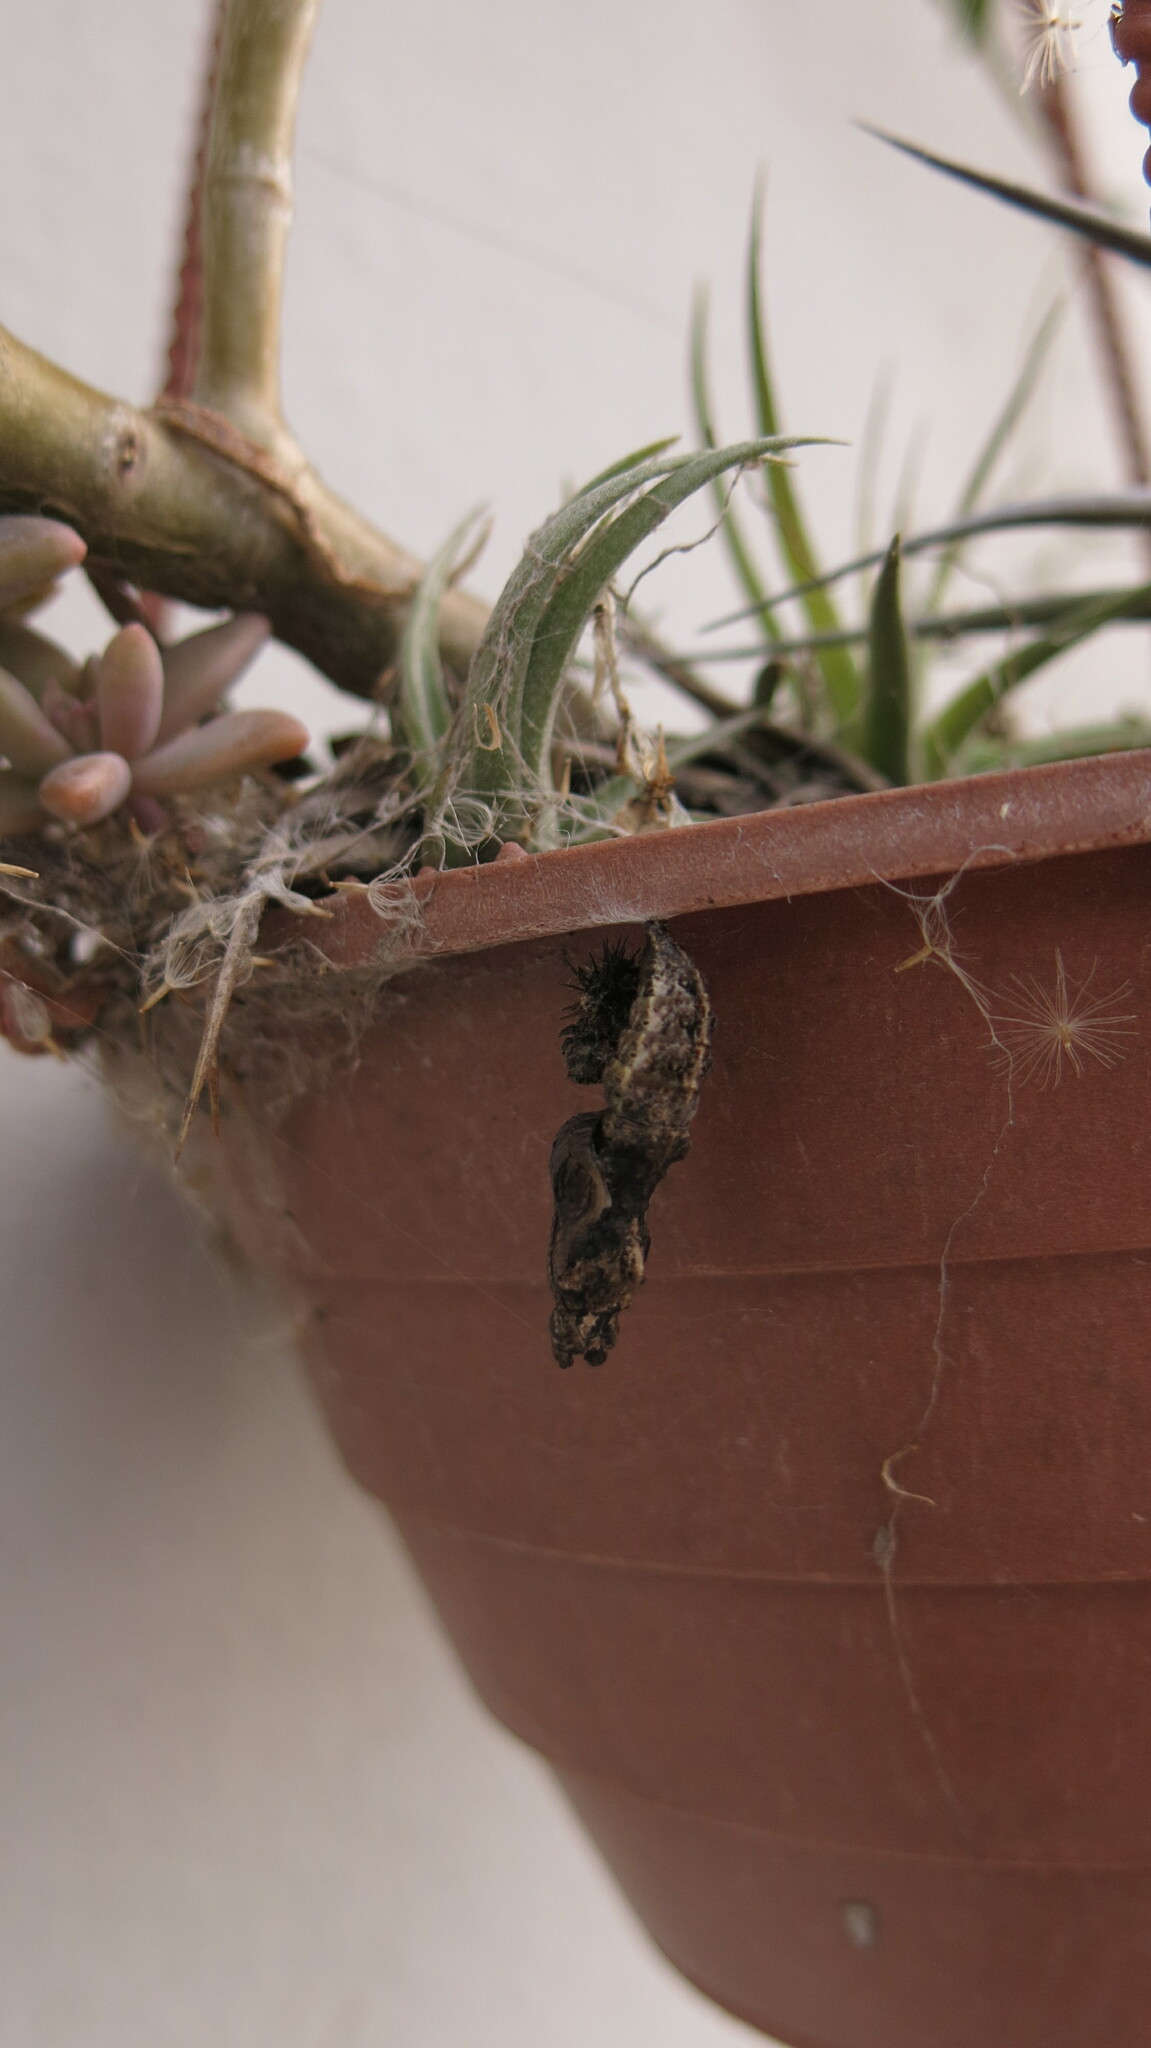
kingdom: Animalia
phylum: Arthropoda
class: Insecta
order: Lepidoptera
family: Nymphalidae
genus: Dione
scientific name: Dione vanillae
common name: Gulf fritillary
